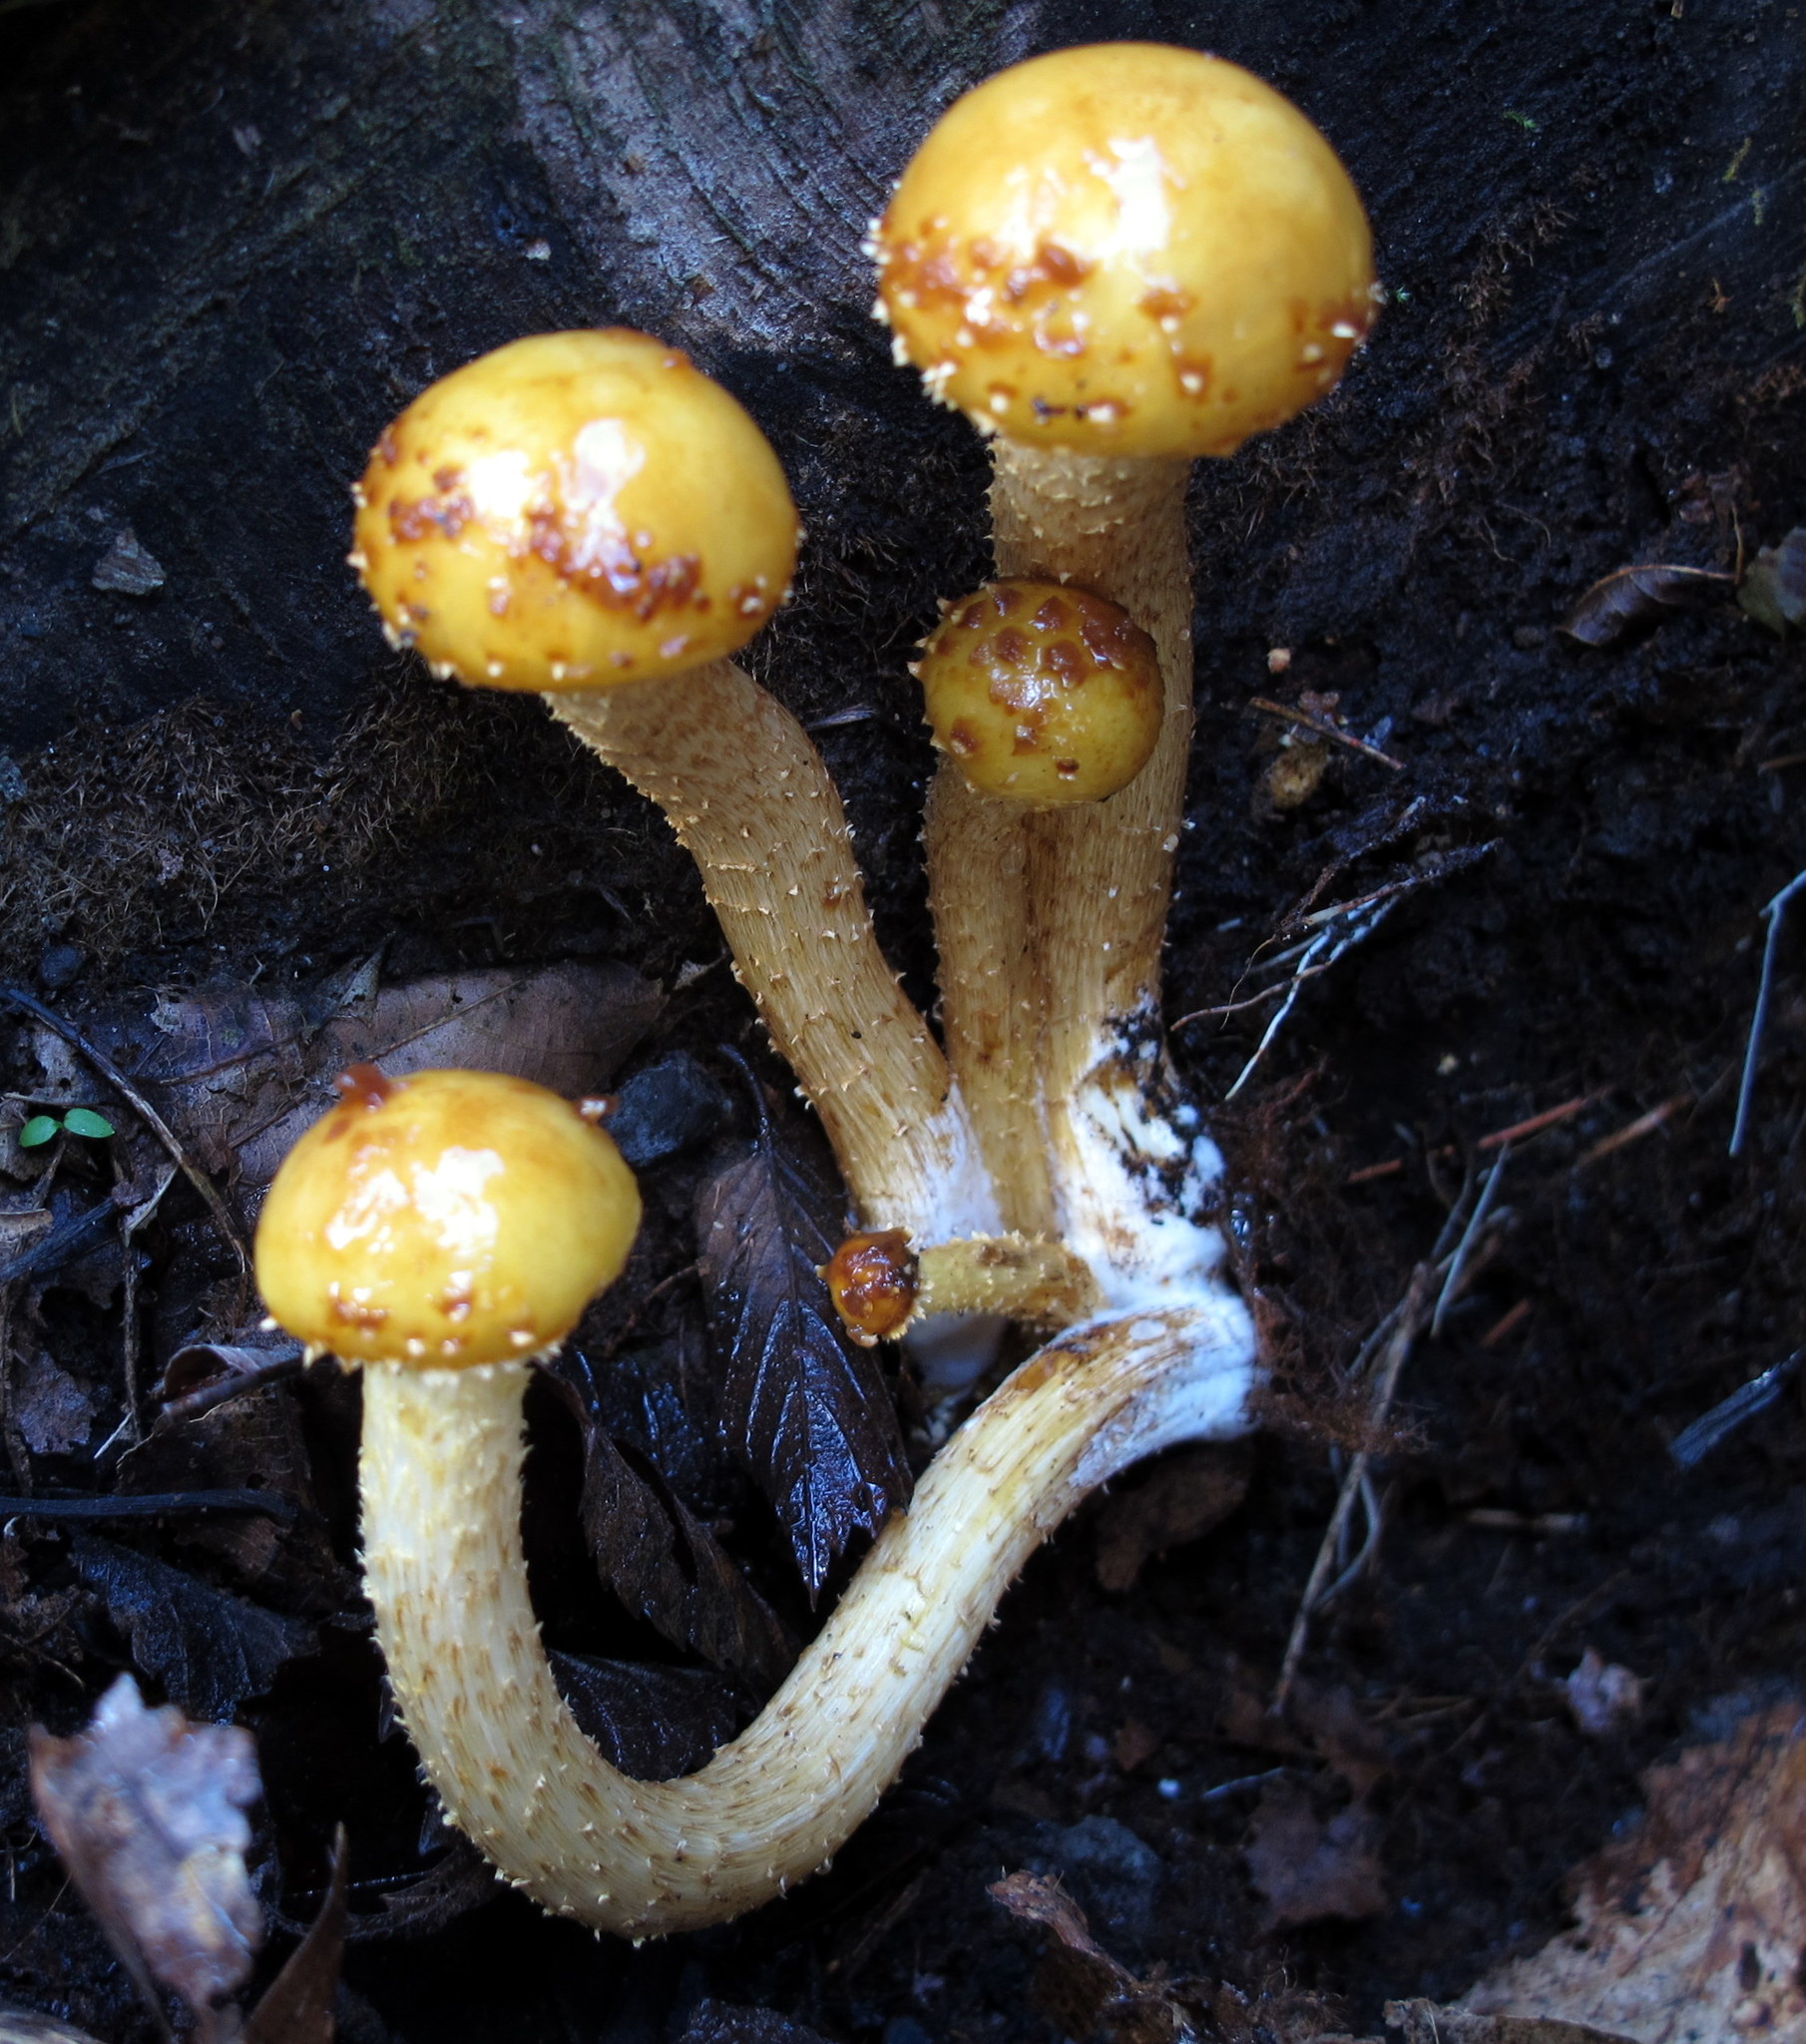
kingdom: Fungi
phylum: Basidiomycota
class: Agaricomycetes
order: Agaricales
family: Strophariaceae
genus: Pholiota
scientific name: Pholiota aurivella
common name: Golden scalycap
